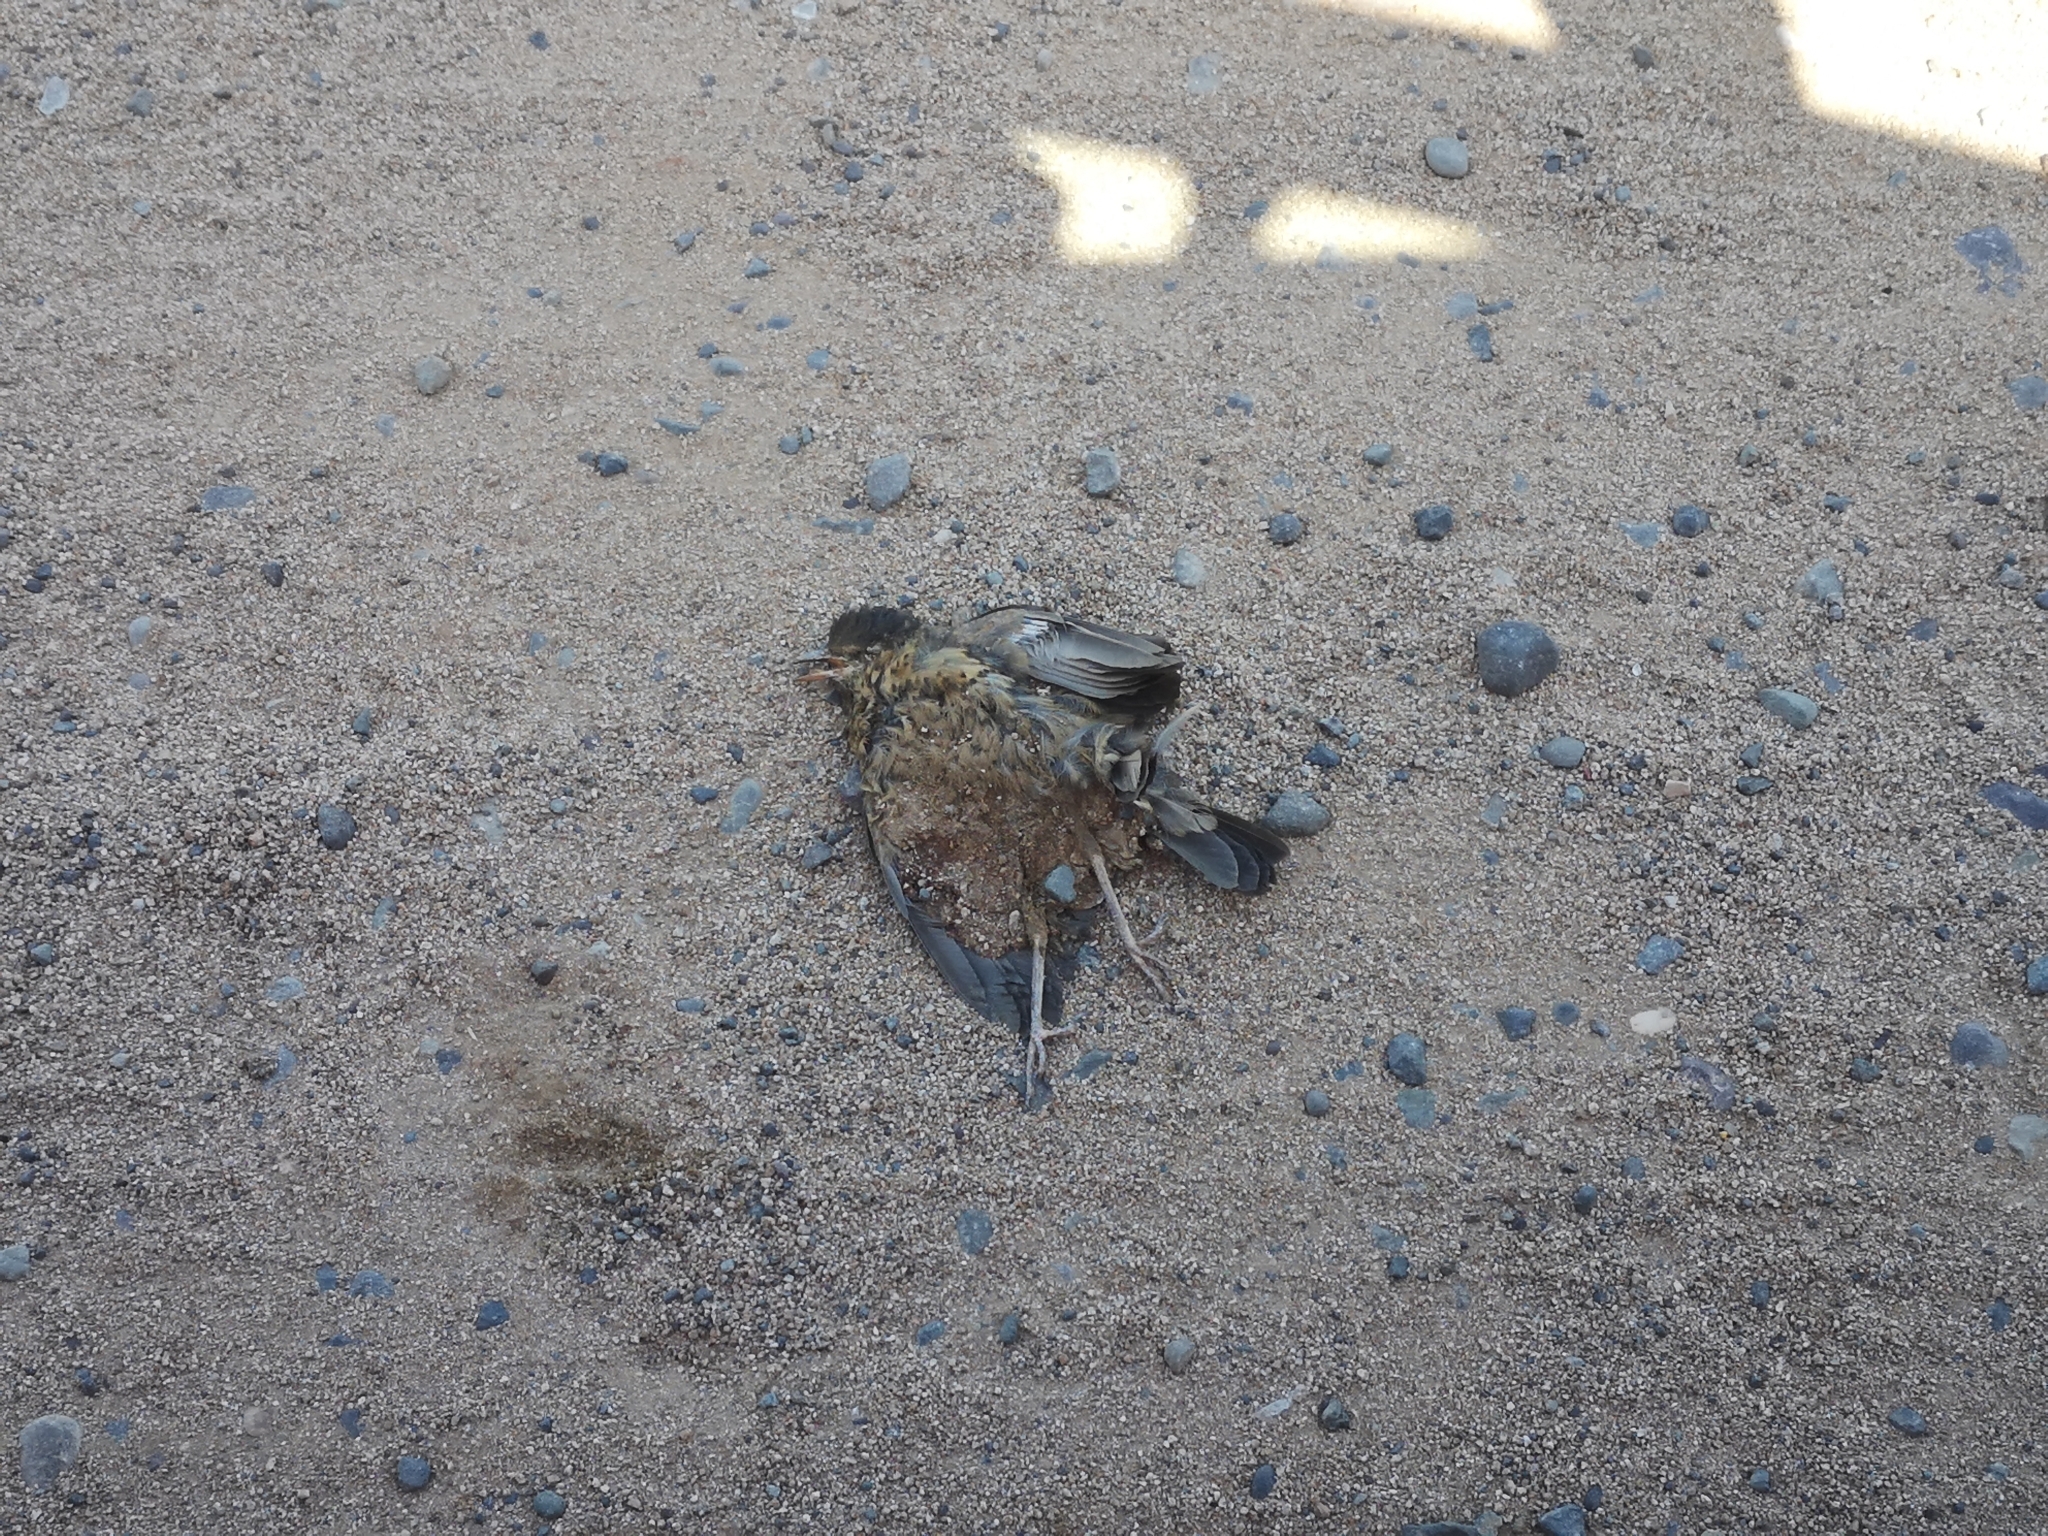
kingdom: Animalia
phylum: Chordata
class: Aves
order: Passeriformes
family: Turdidae
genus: Turdus
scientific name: Turdus falcklandii
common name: Austral thrush
